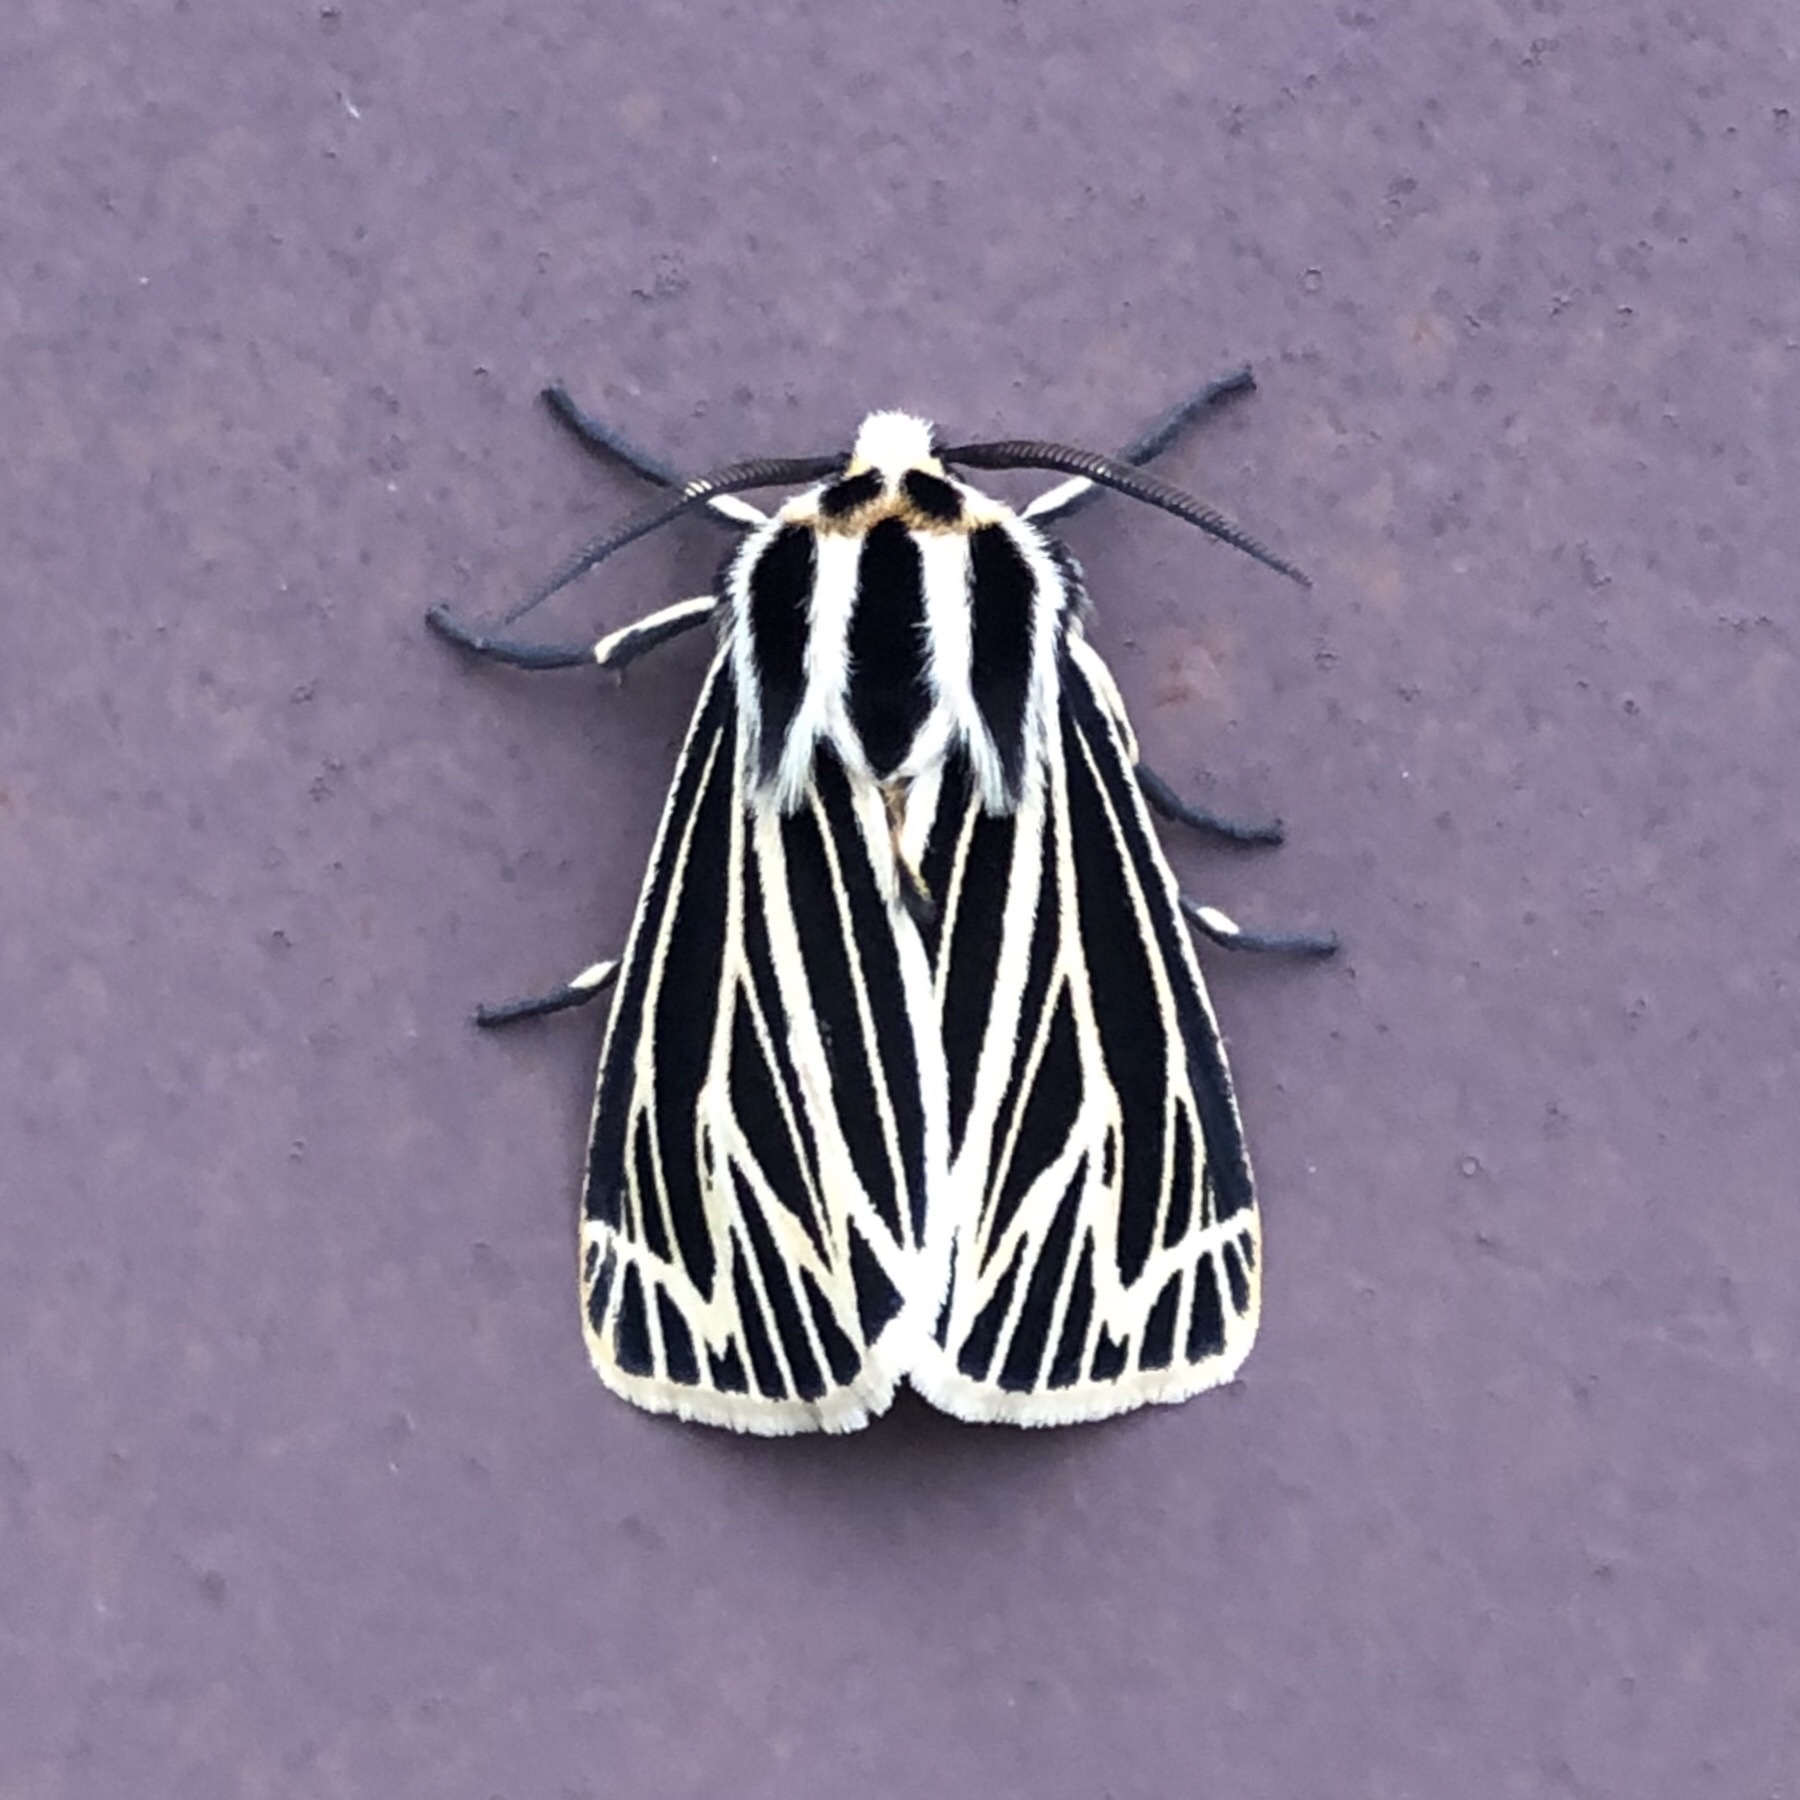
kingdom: Animalia
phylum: Arthropoda
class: Insecta
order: Lepidoptera
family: Erebidae
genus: Grammia
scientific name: Grammia virguncula
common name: Little tiger moth
